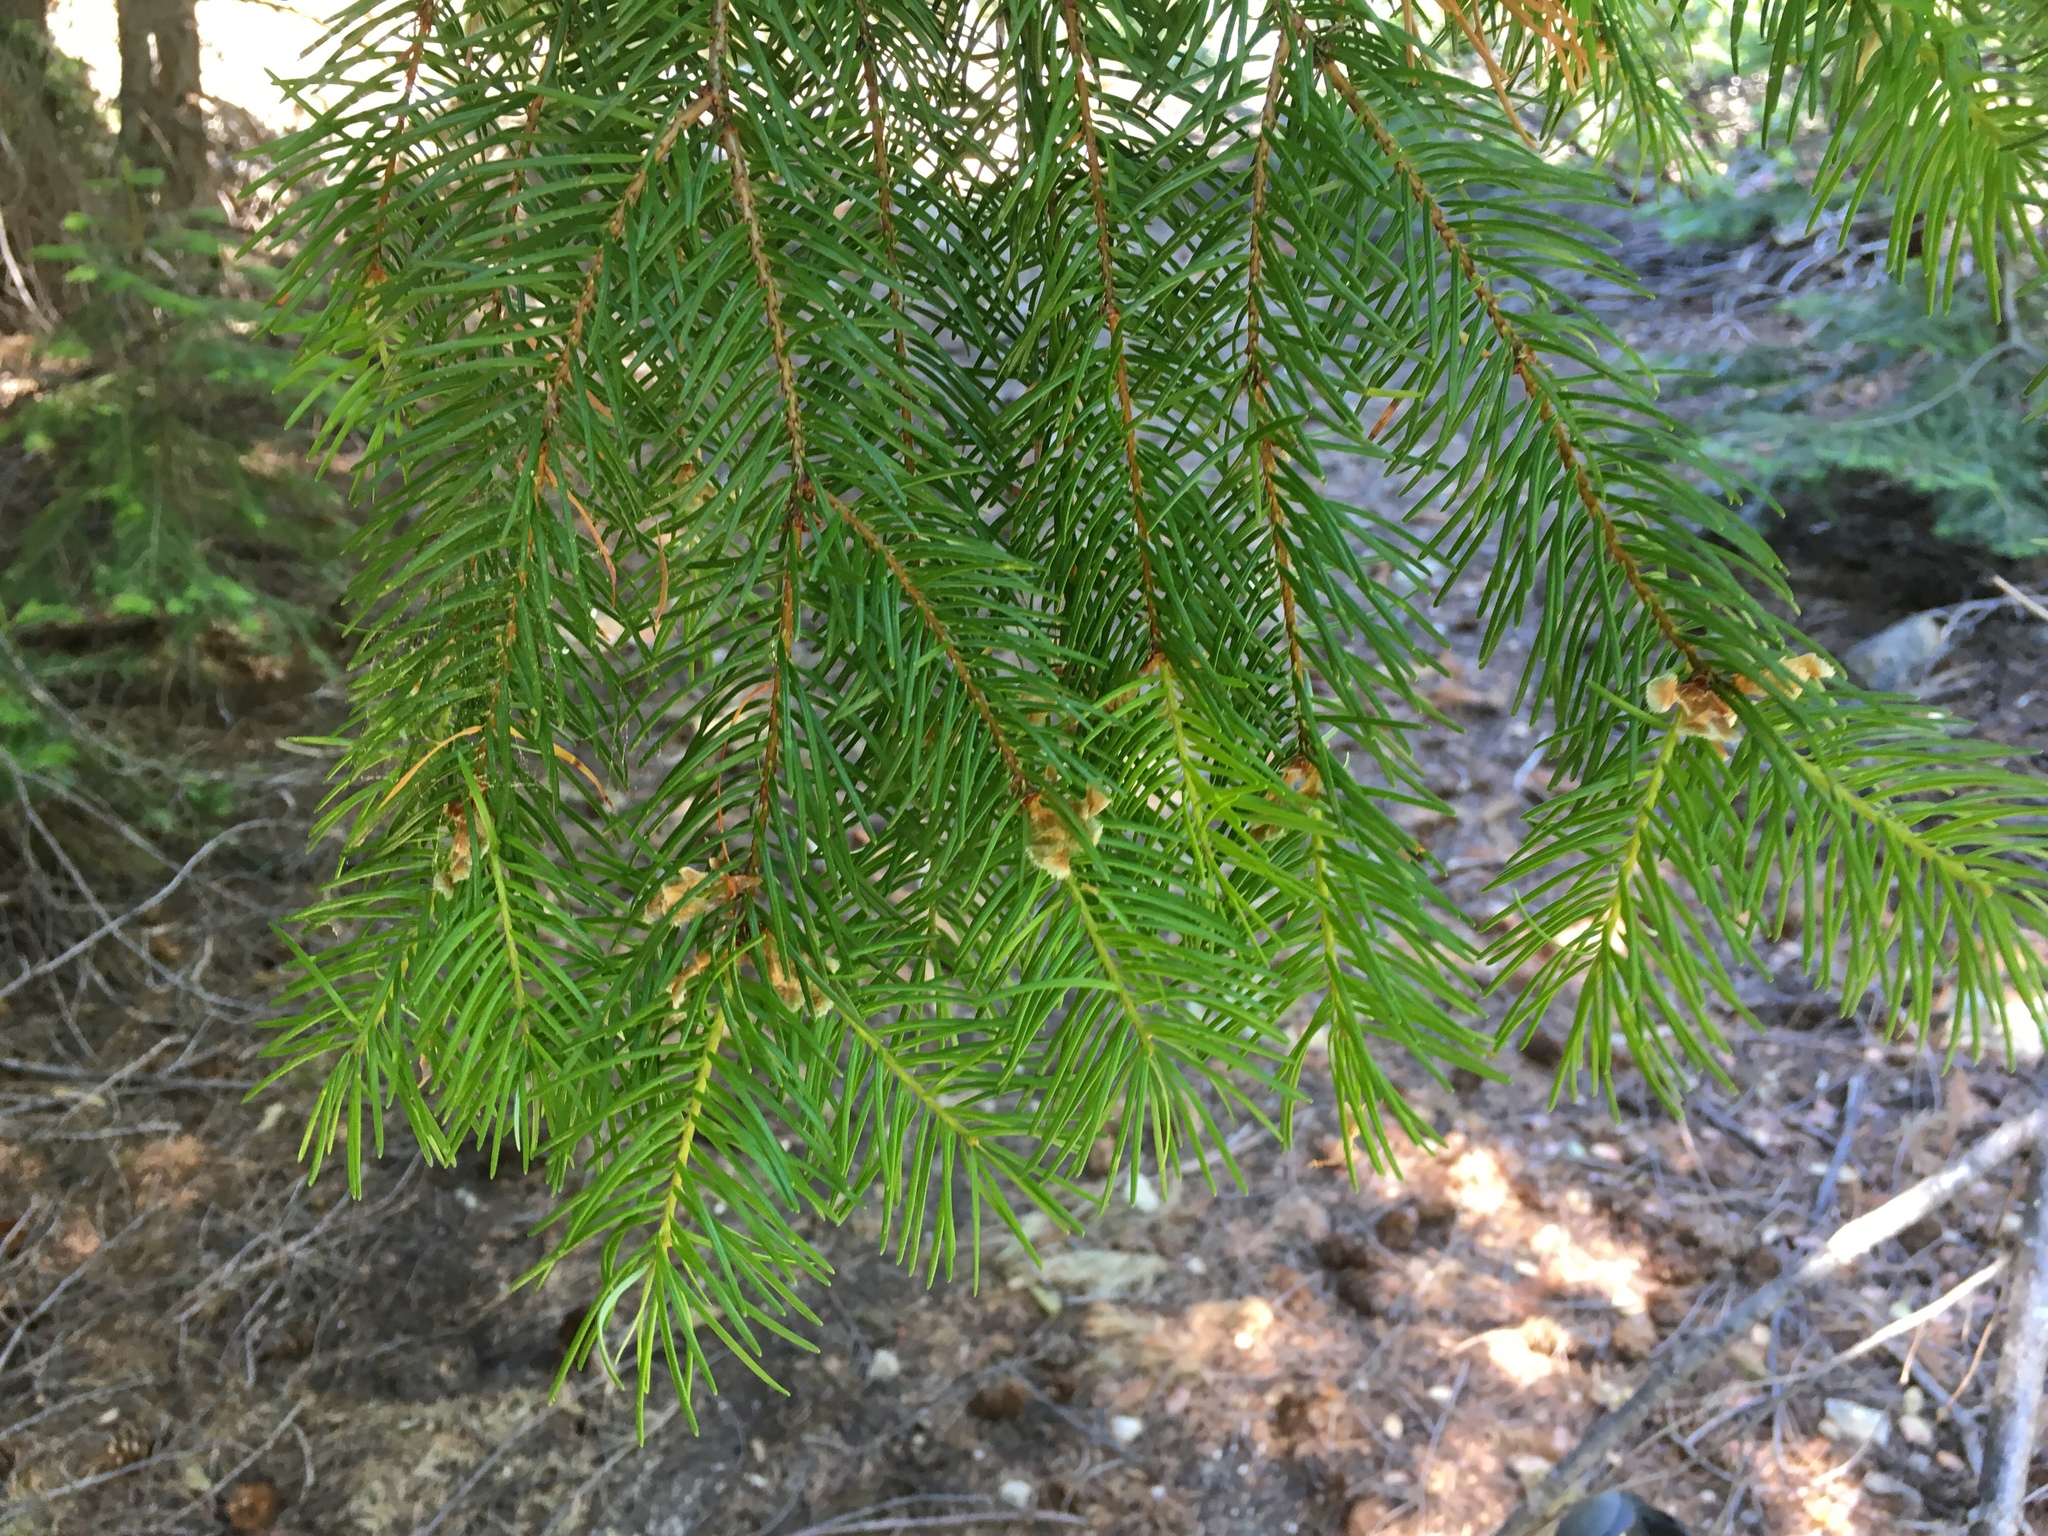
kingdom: Plantae
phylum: Tracheophyta
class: Pinopsida
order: Pinales
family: Pinaceae
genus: Pseudotsuga
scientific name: Pseudotsuga menziesii
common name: Douglas fir
